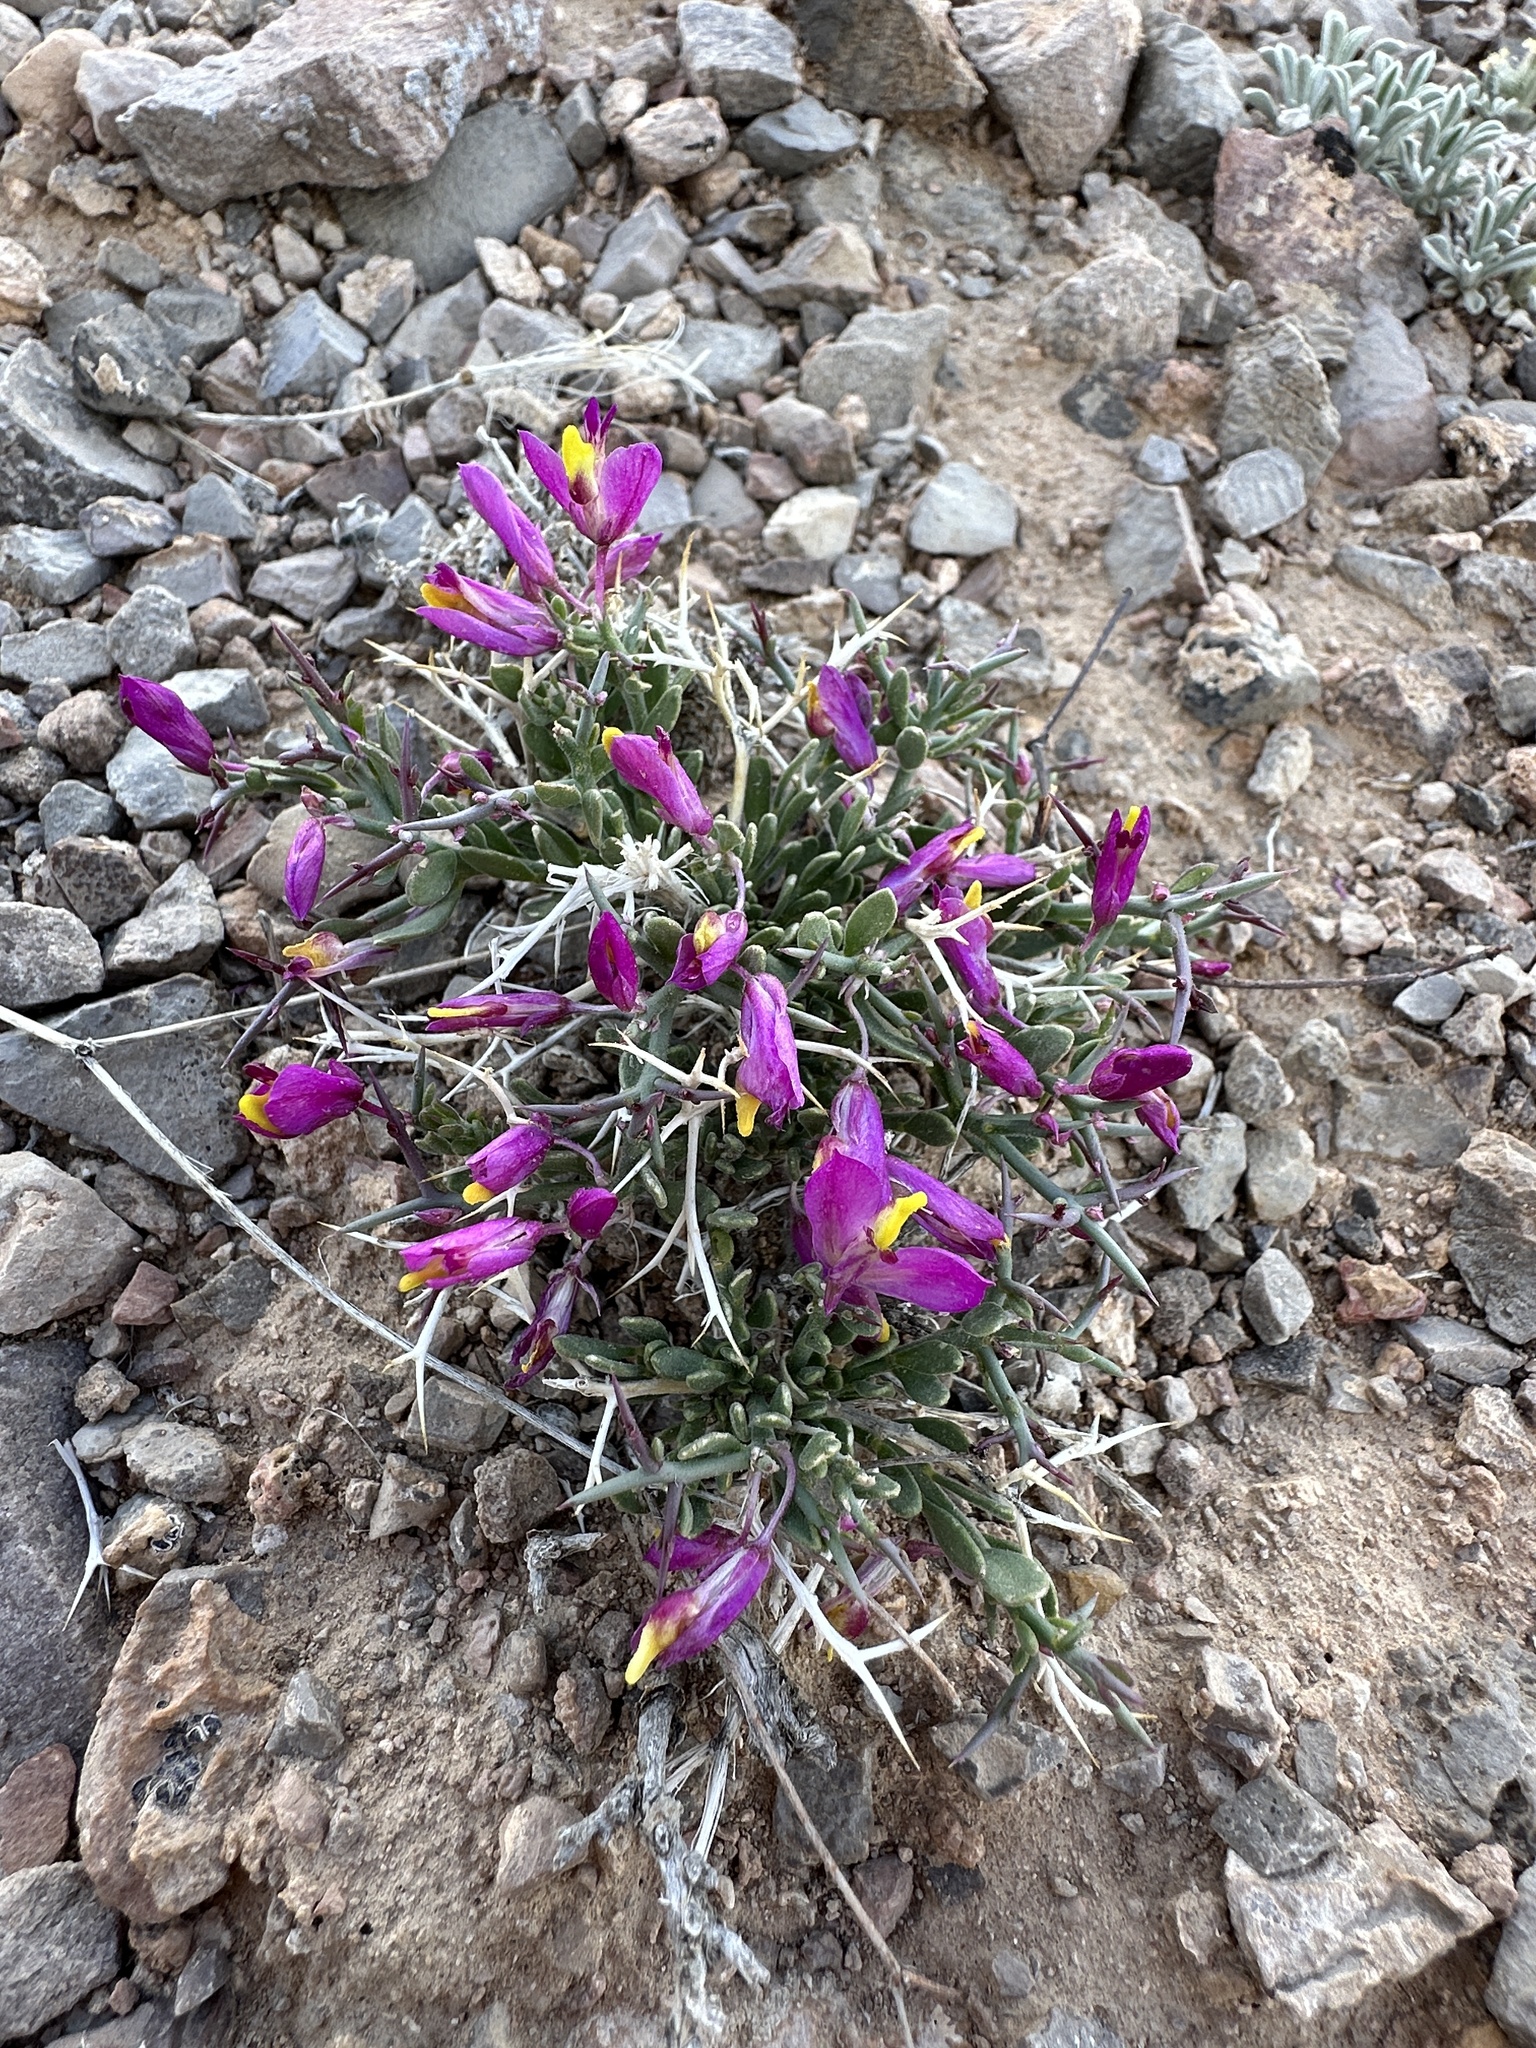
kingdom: Plantae
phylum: Tracheophyta
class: Magnoliopsida
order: Fabales
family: Polygalaceae
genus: Rhinotropis
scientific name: Rhinotropis subspinosa
